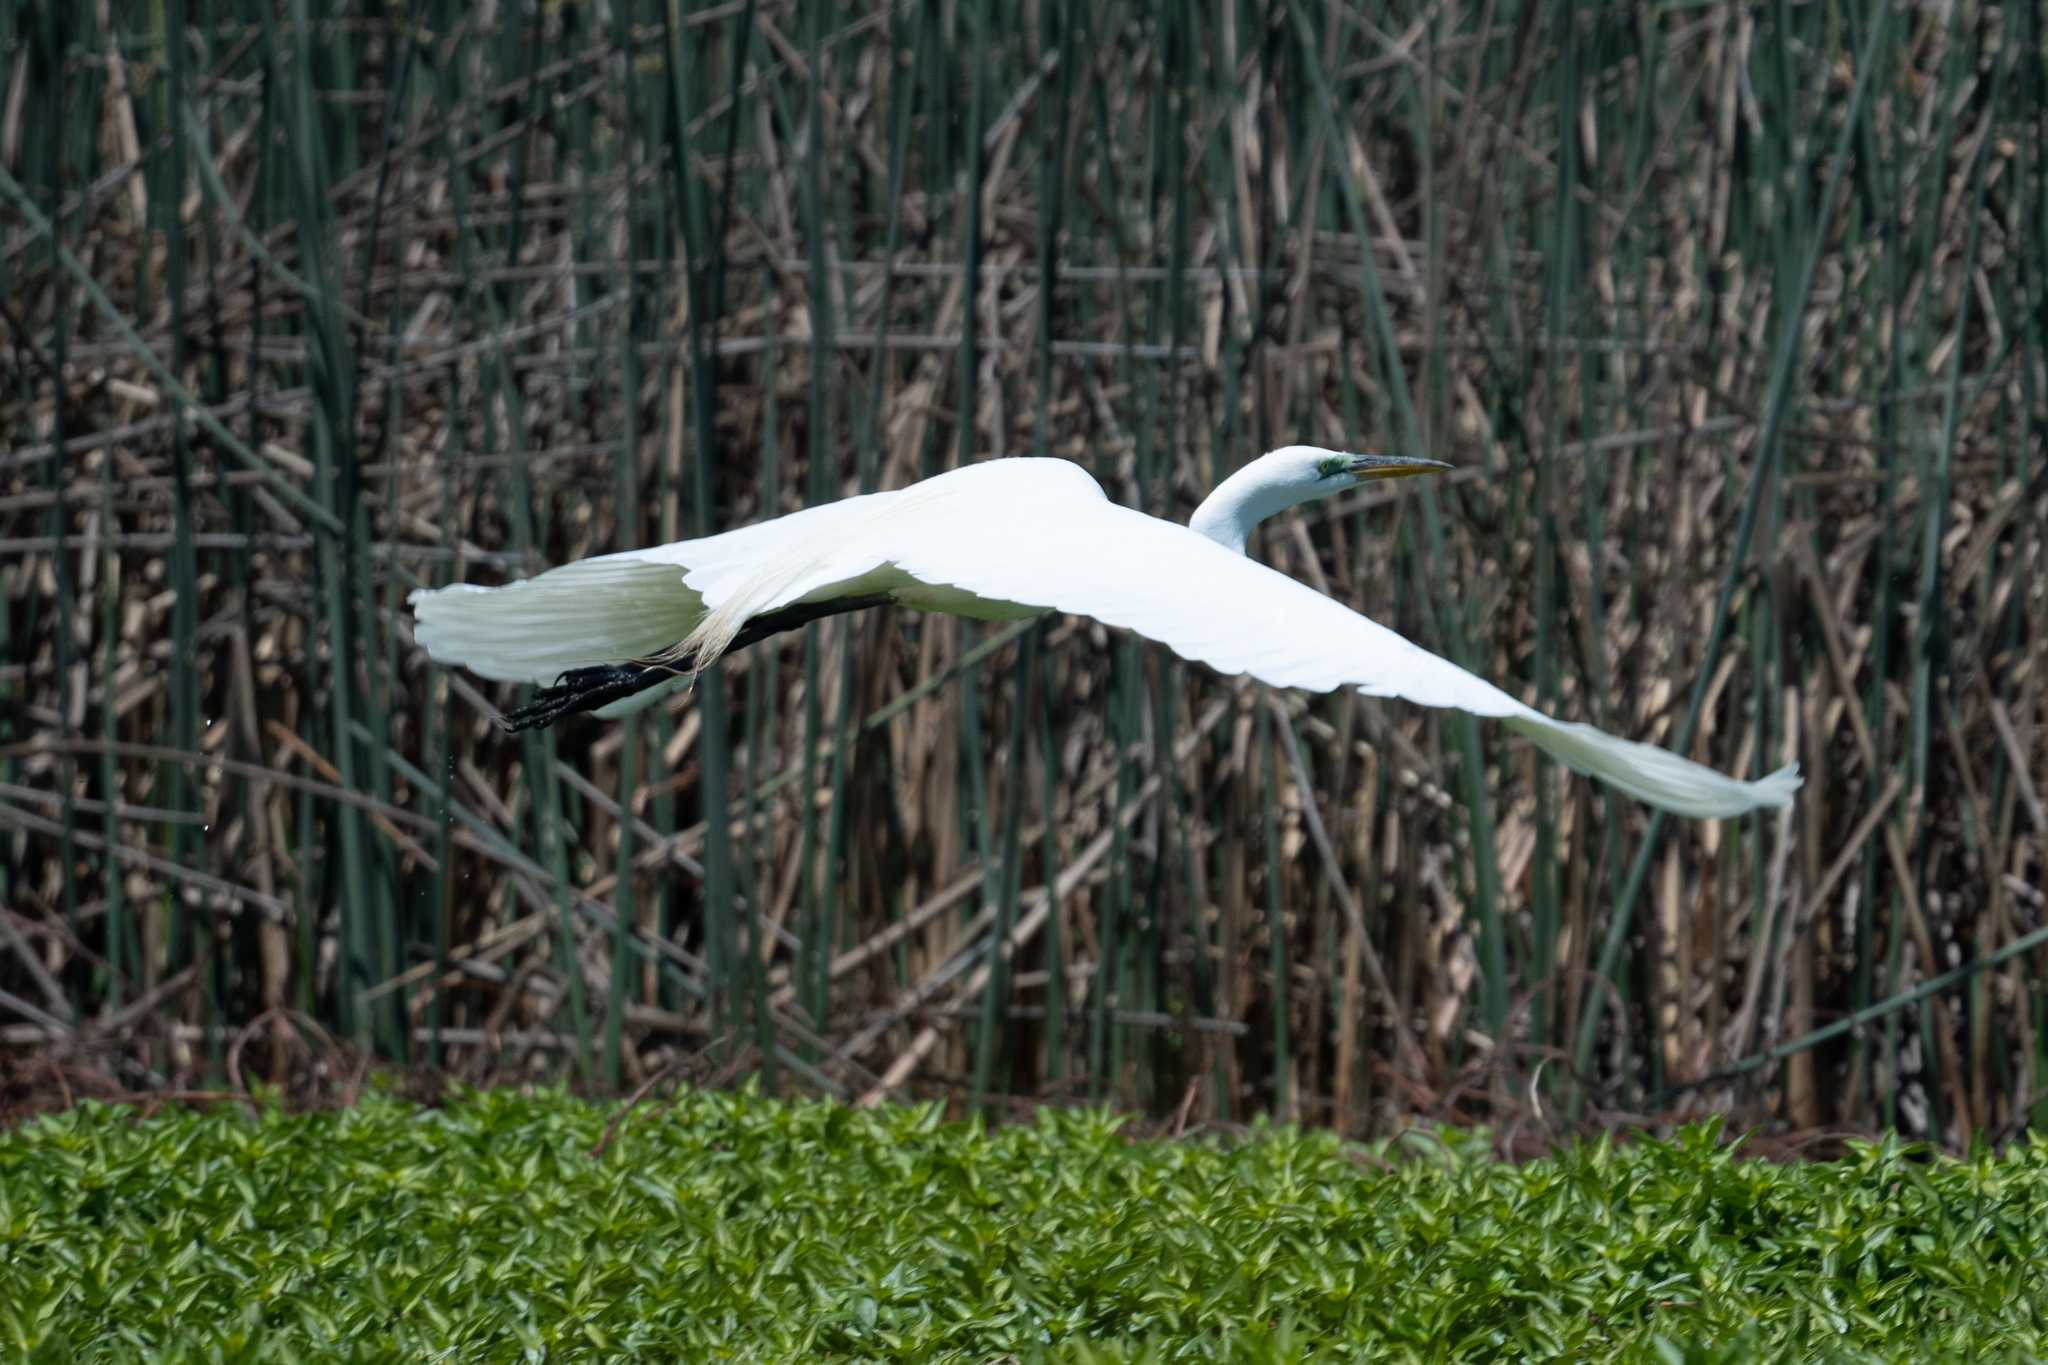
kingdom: Animalia
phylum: Chordata
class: Aves
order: Pelecaniformes
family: Ardeidae
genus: Ardea
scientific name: Ardea alba
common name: Great egret
